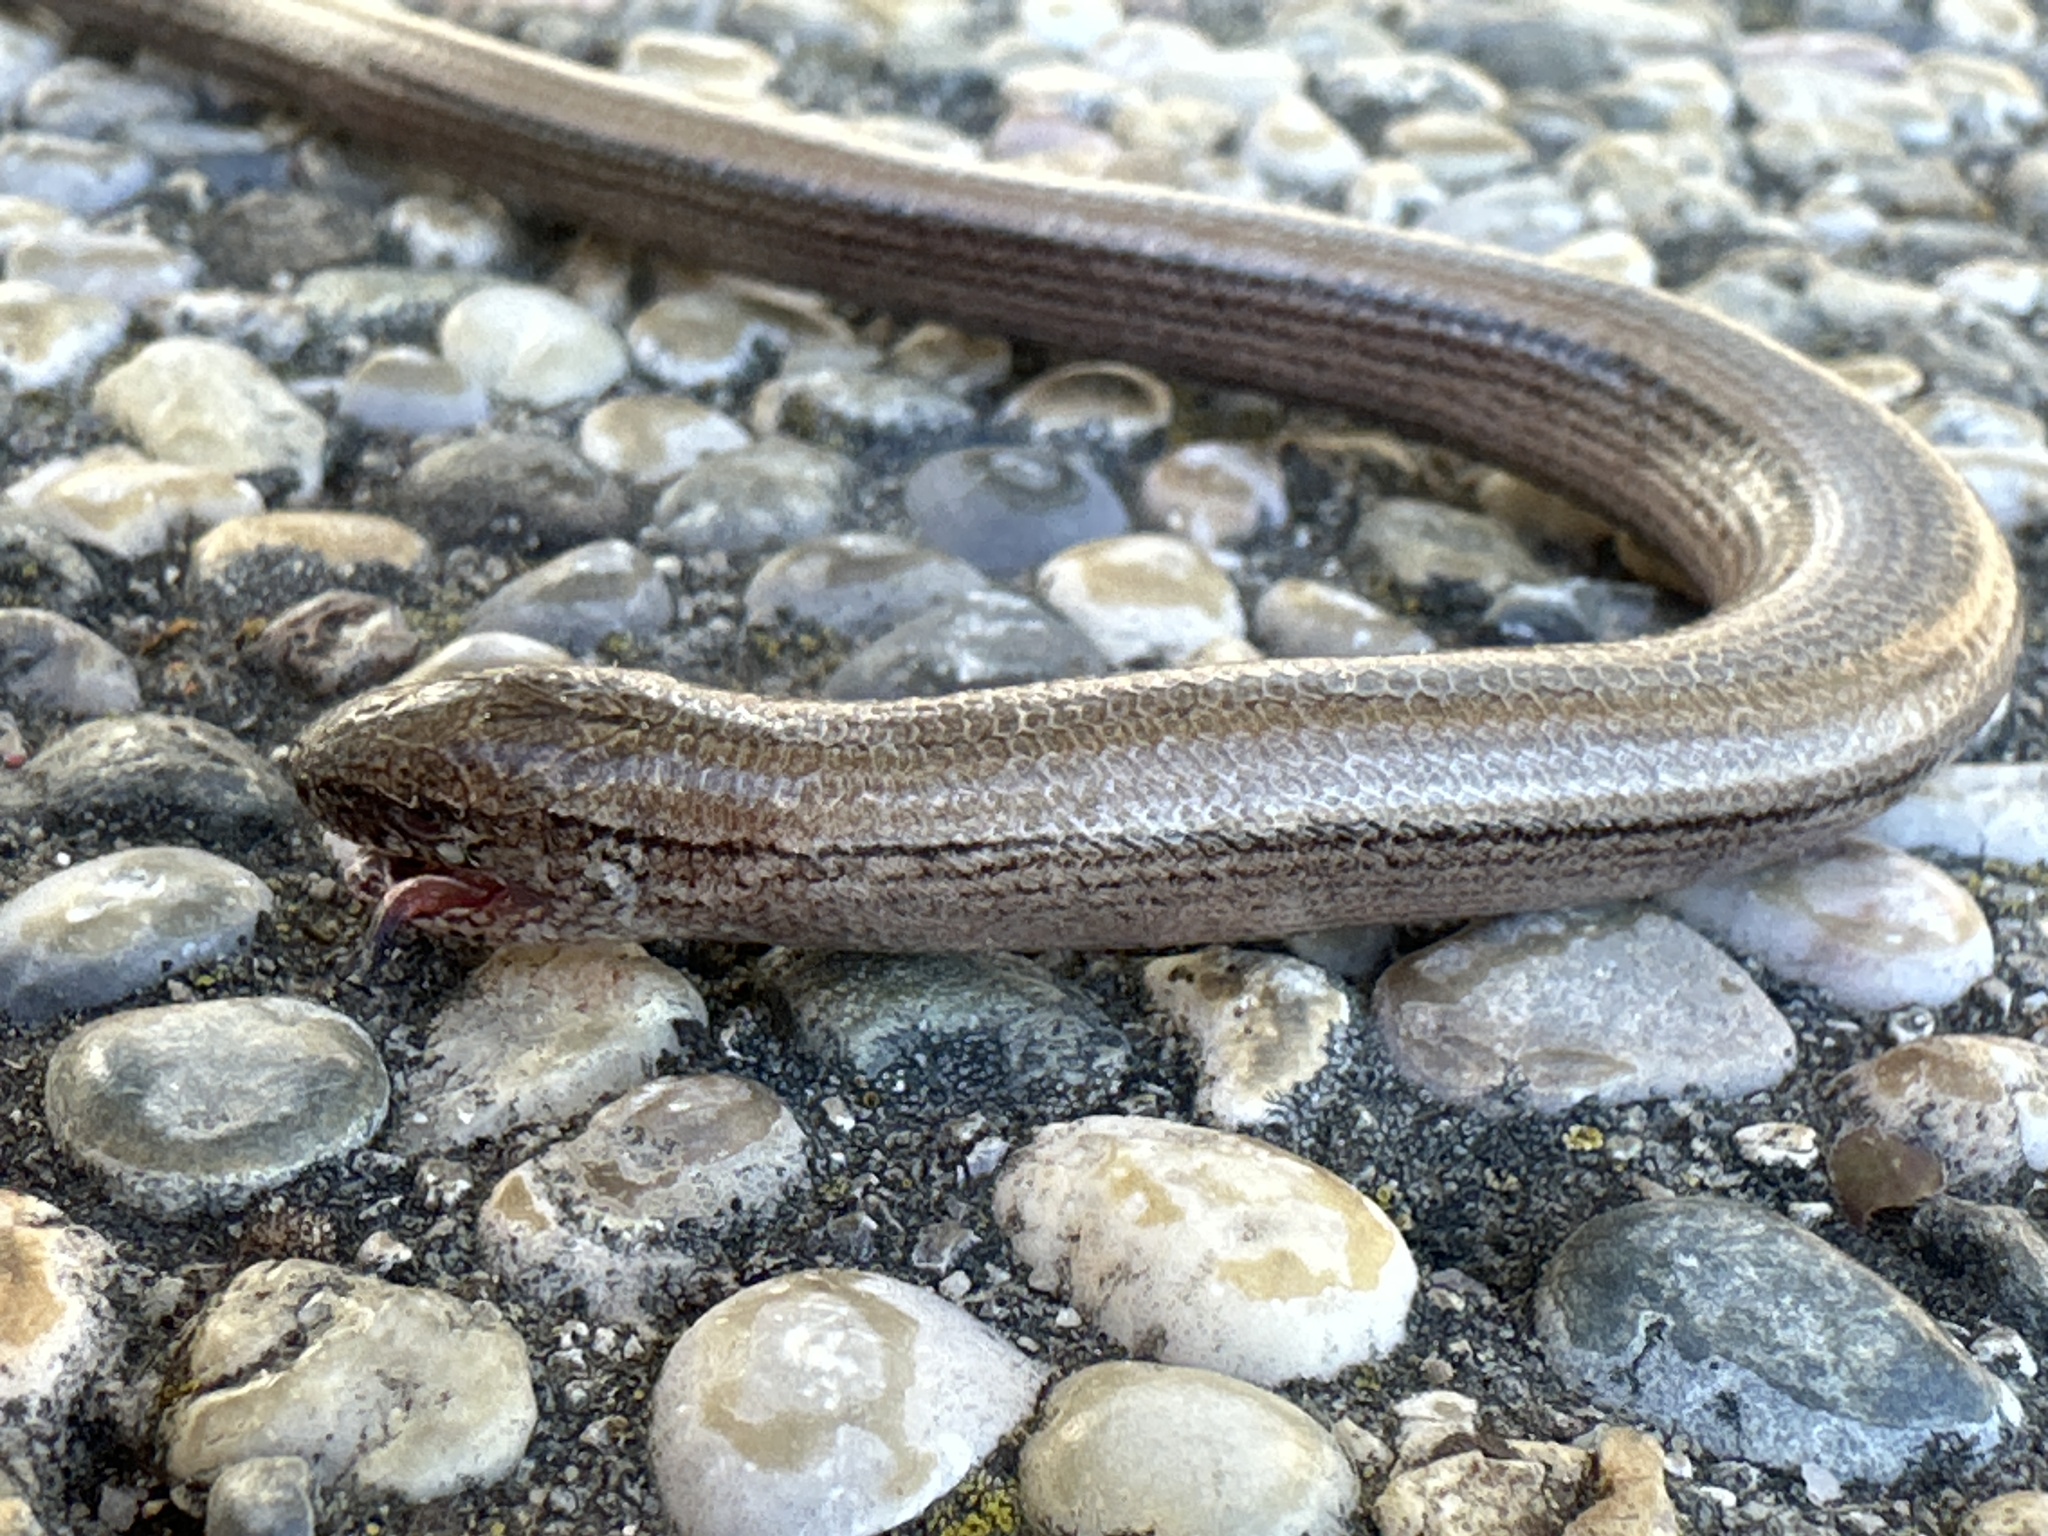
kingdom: Animalia
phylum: Chordata
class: Squamata
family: Anguidae
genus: Anguis
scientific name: Anguis fragilis
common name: Slow worm
